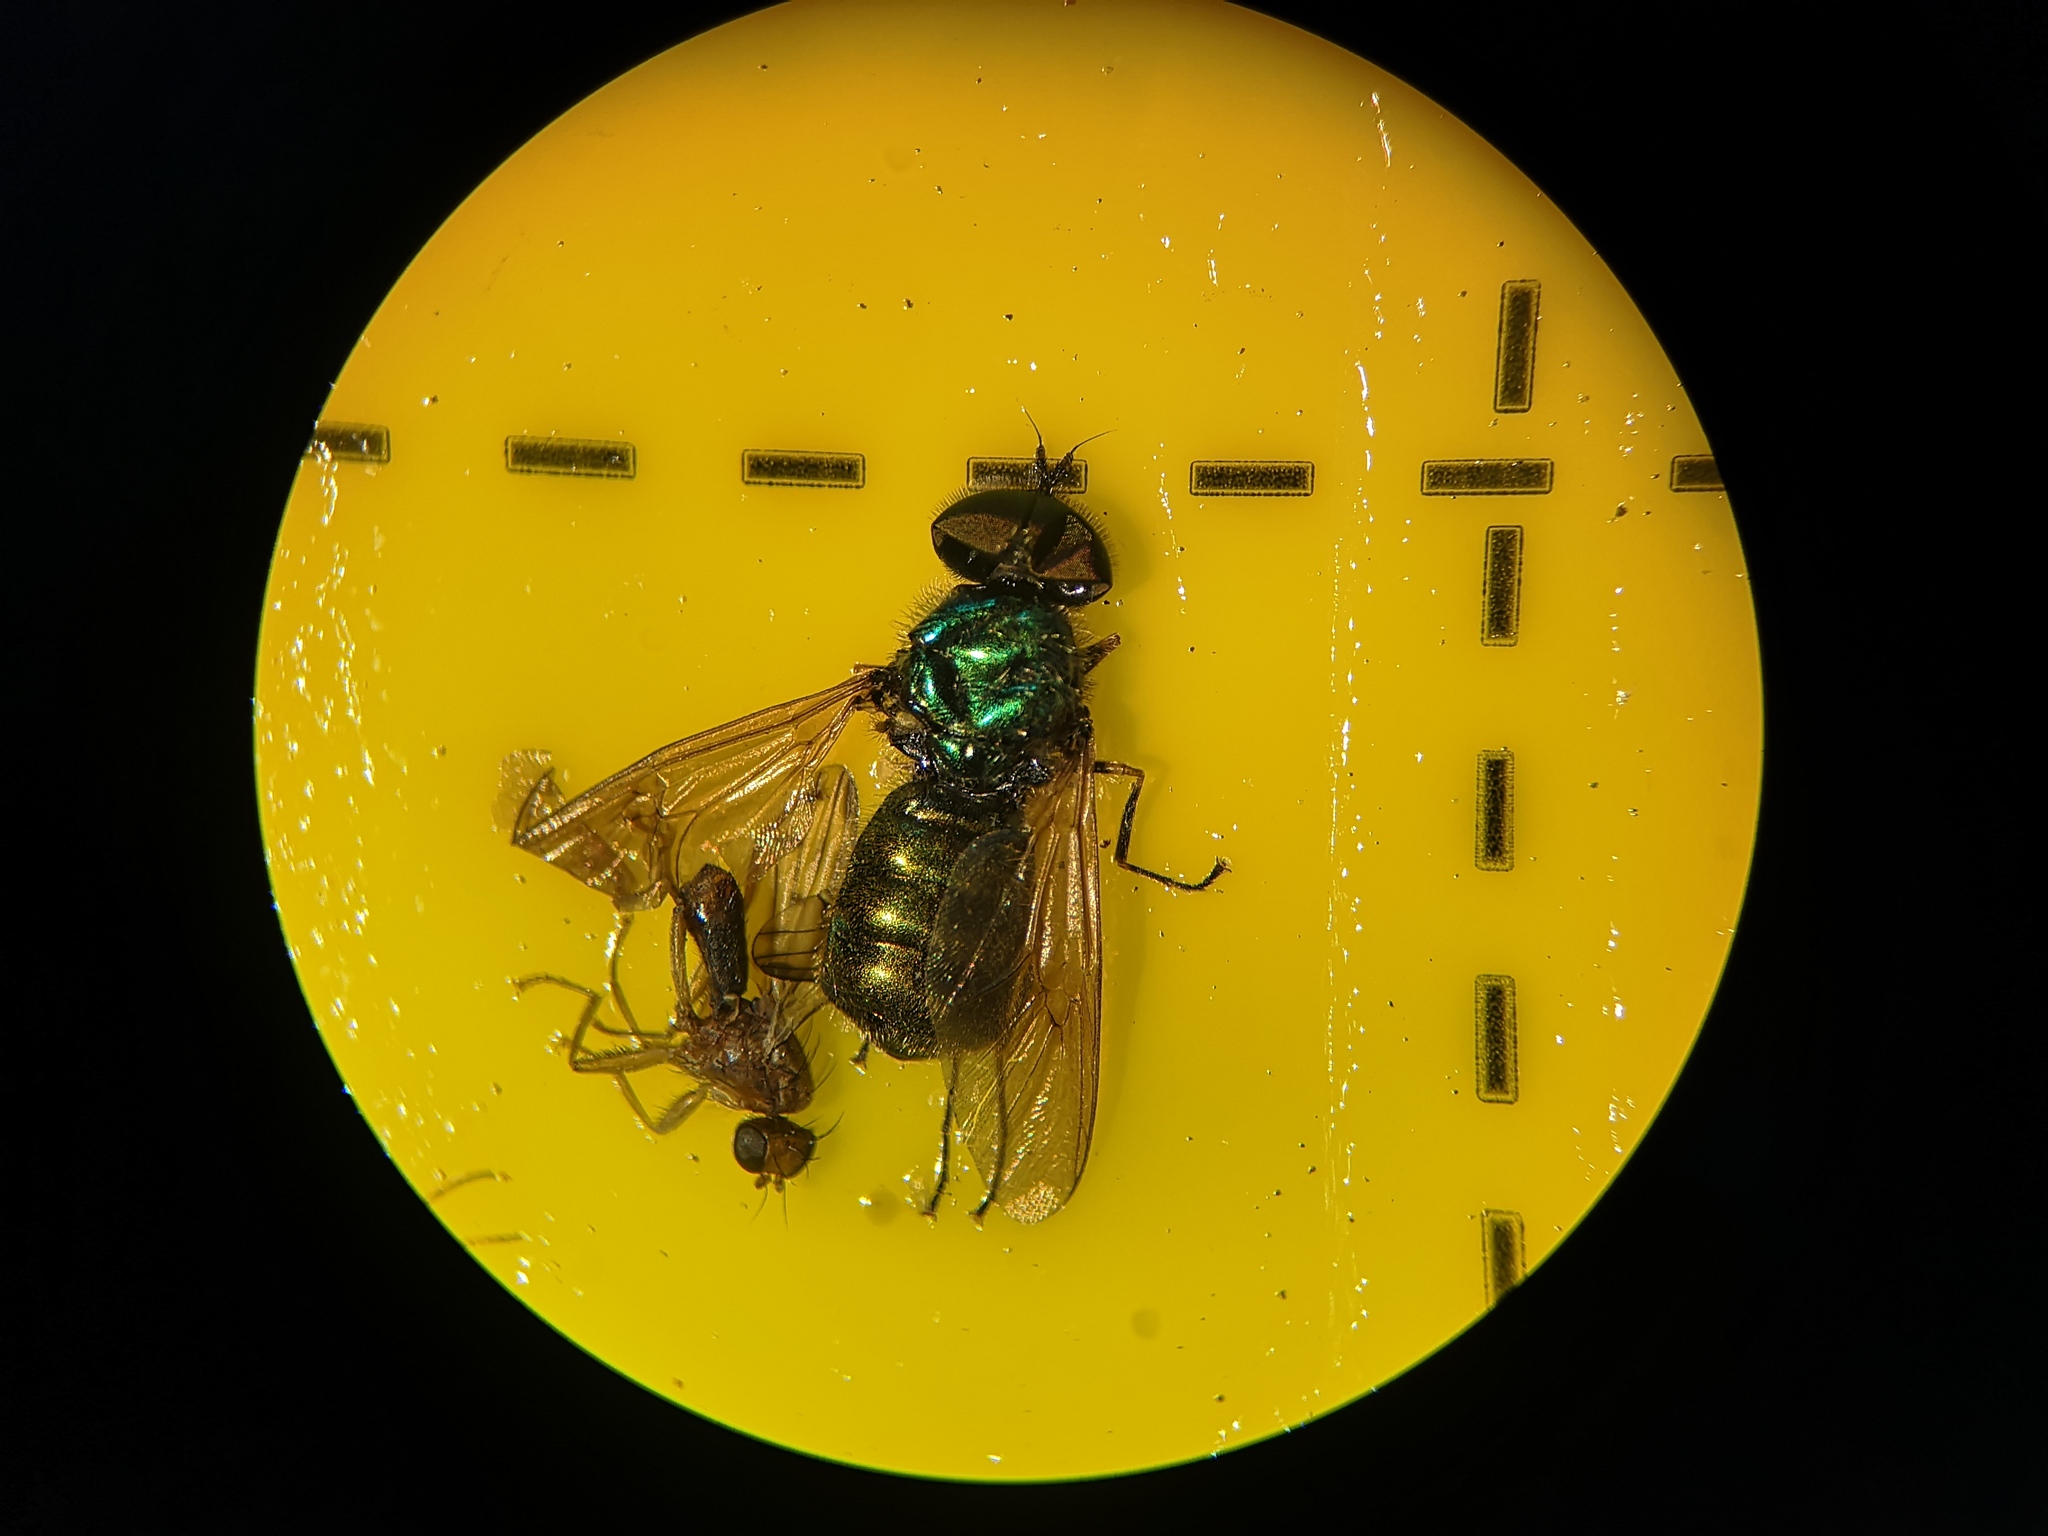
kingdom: Animalia
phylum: Arthropoda
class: Insecta
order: Diptera
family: Stratiomyidae
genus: Chloromyia
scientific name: Chloromyia formosa
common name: Soldier fly
